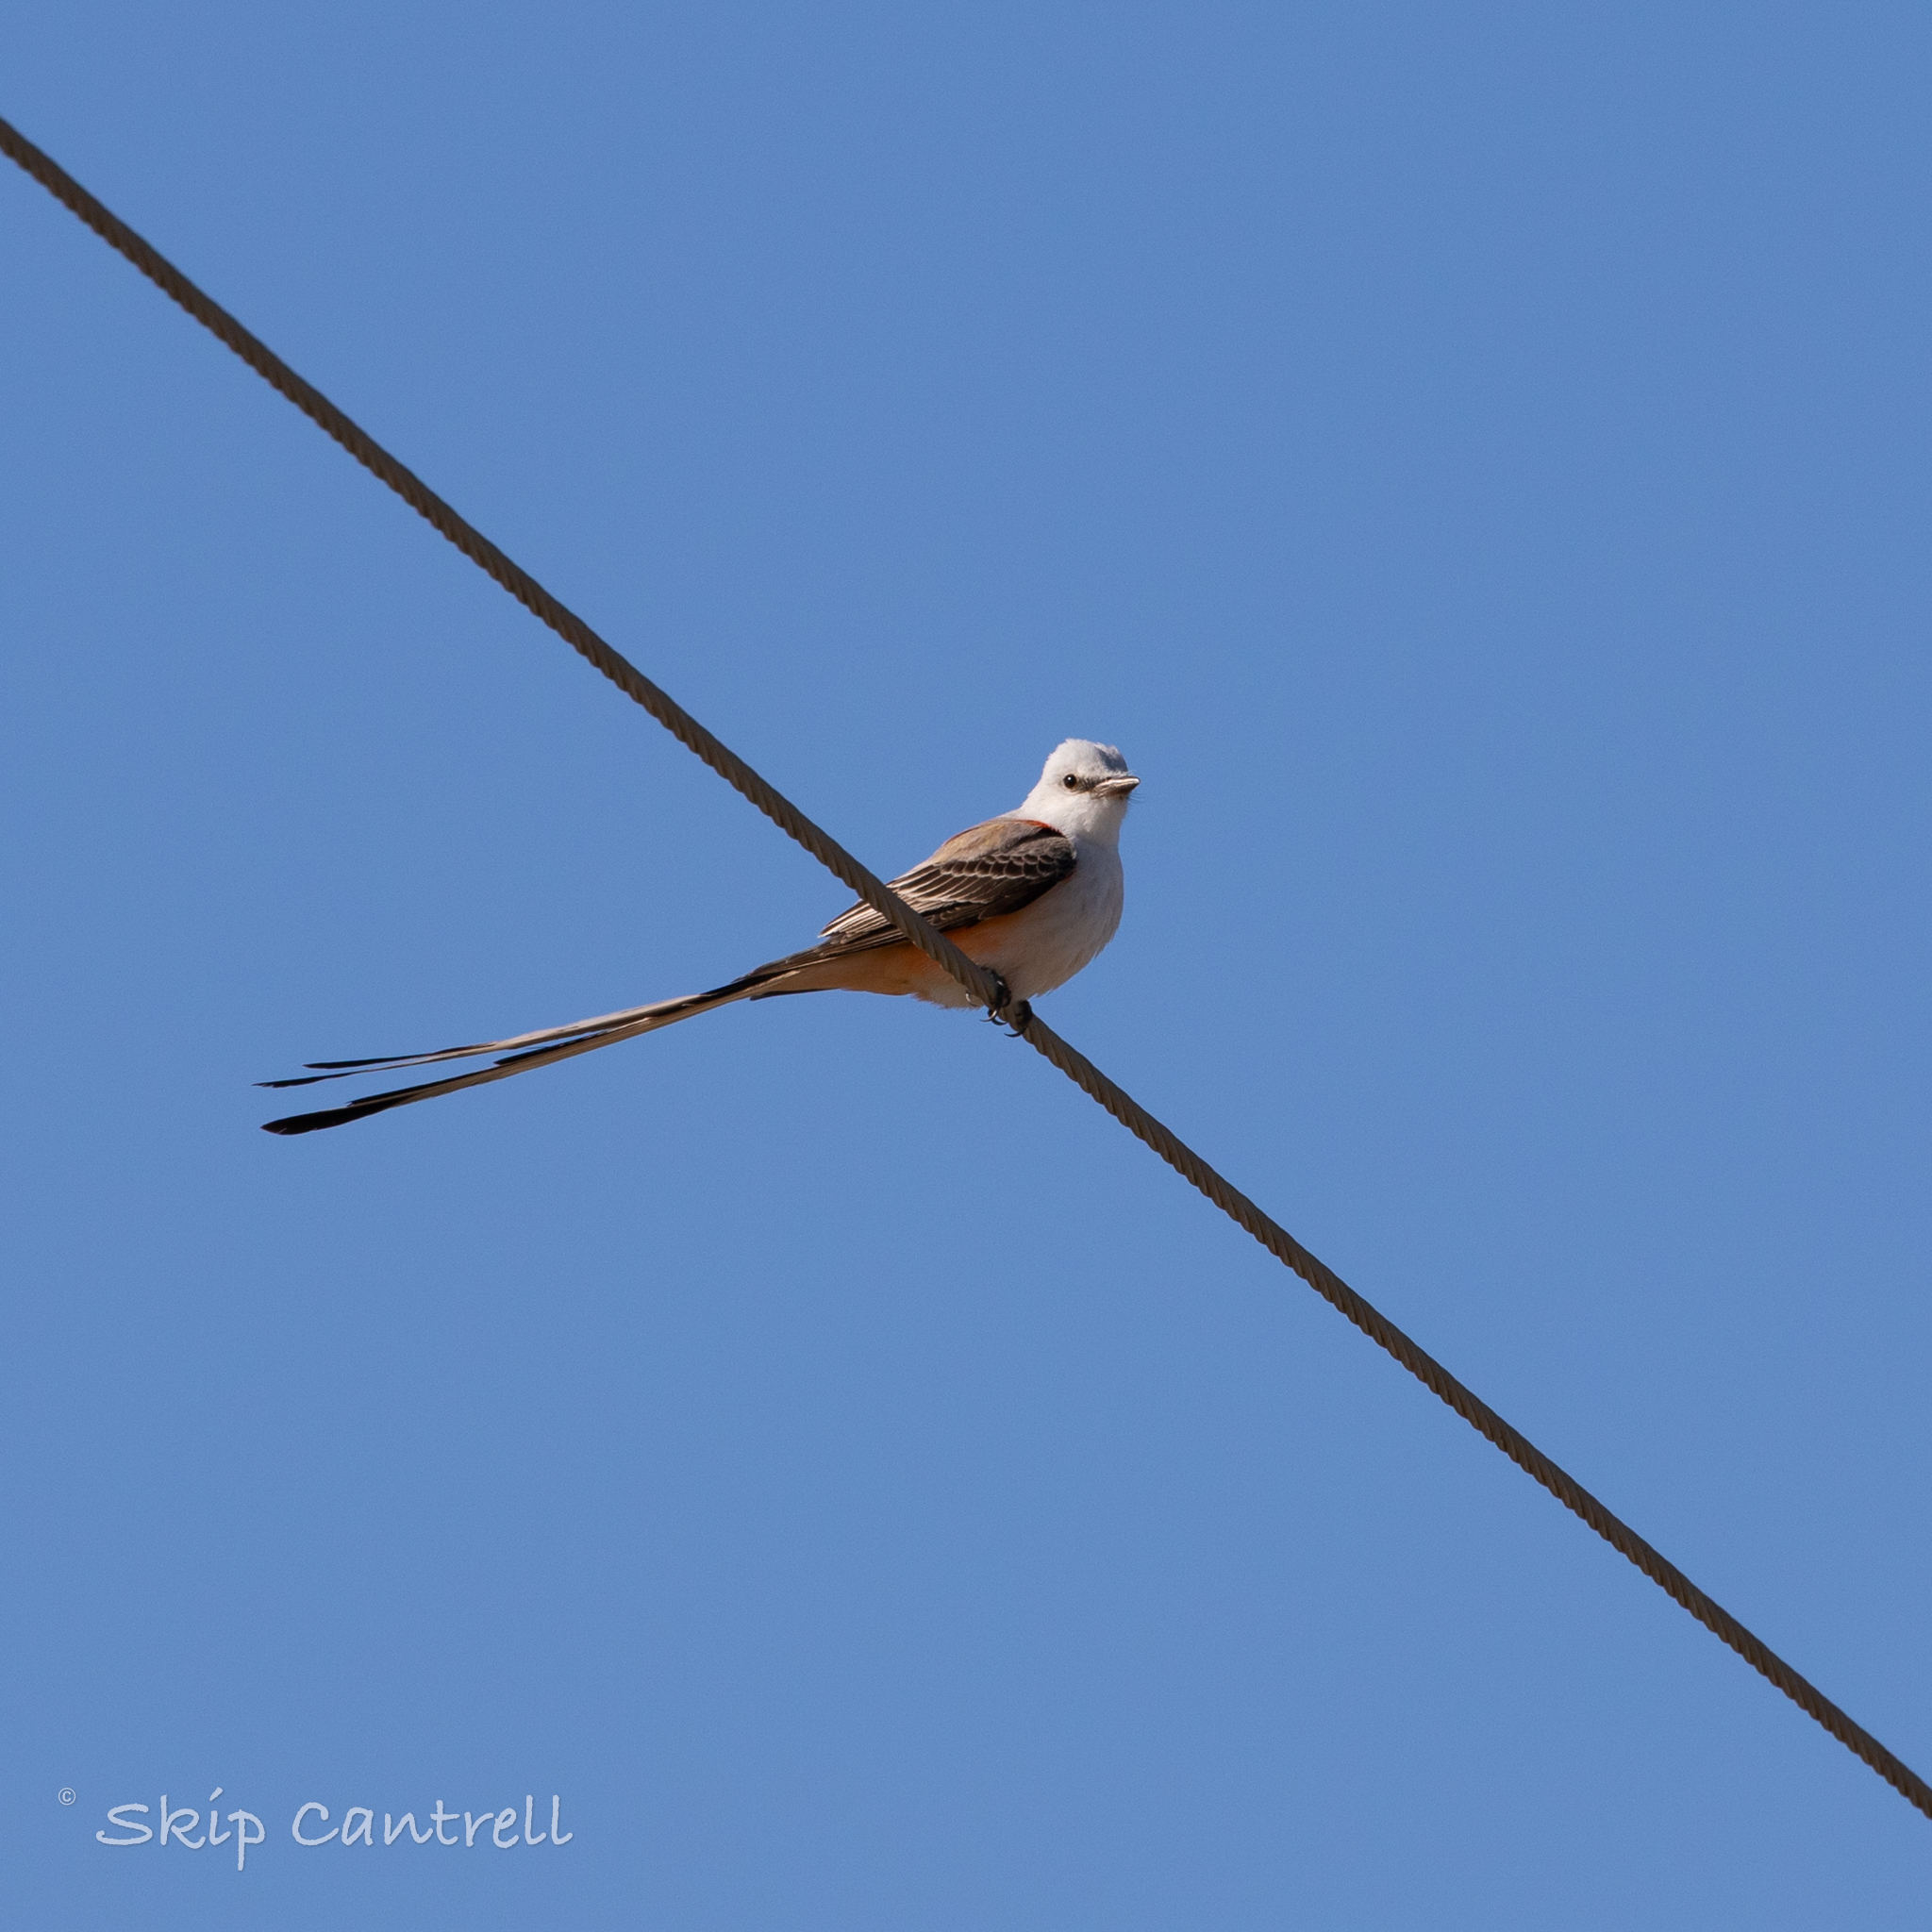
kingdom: Animalia
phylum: Chordata
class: Aves
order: Passeriformes
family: Tyrannidae
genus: Tyrannus
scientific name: Tyrannus forficatus
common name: Scissor-tailed flycatcher
